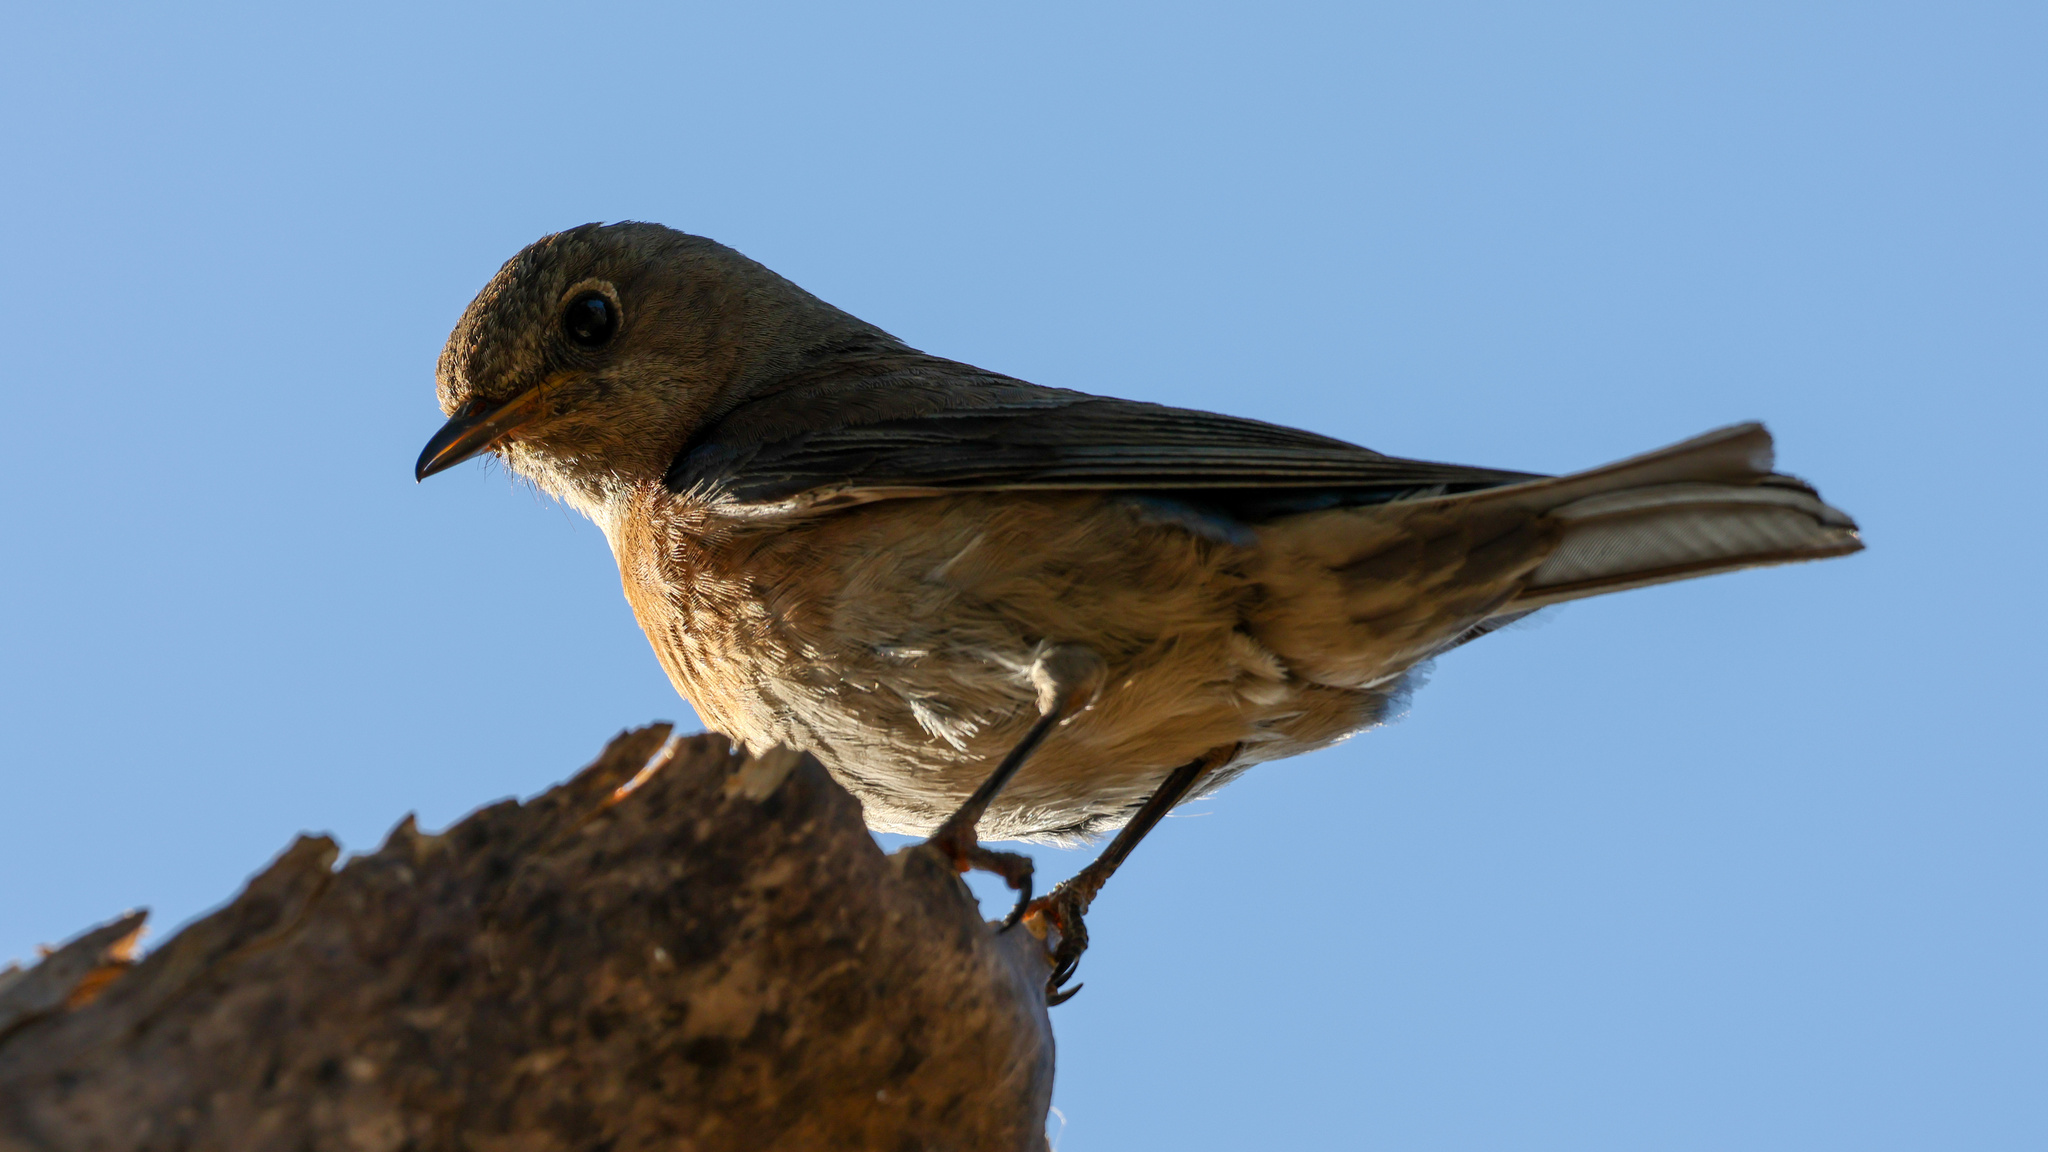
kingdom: Animalia
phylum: Chordata
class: Aves
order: Passeriformes
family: Turdidae
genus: Sialia
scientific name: Sialia mexicana
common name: Western bluebird
